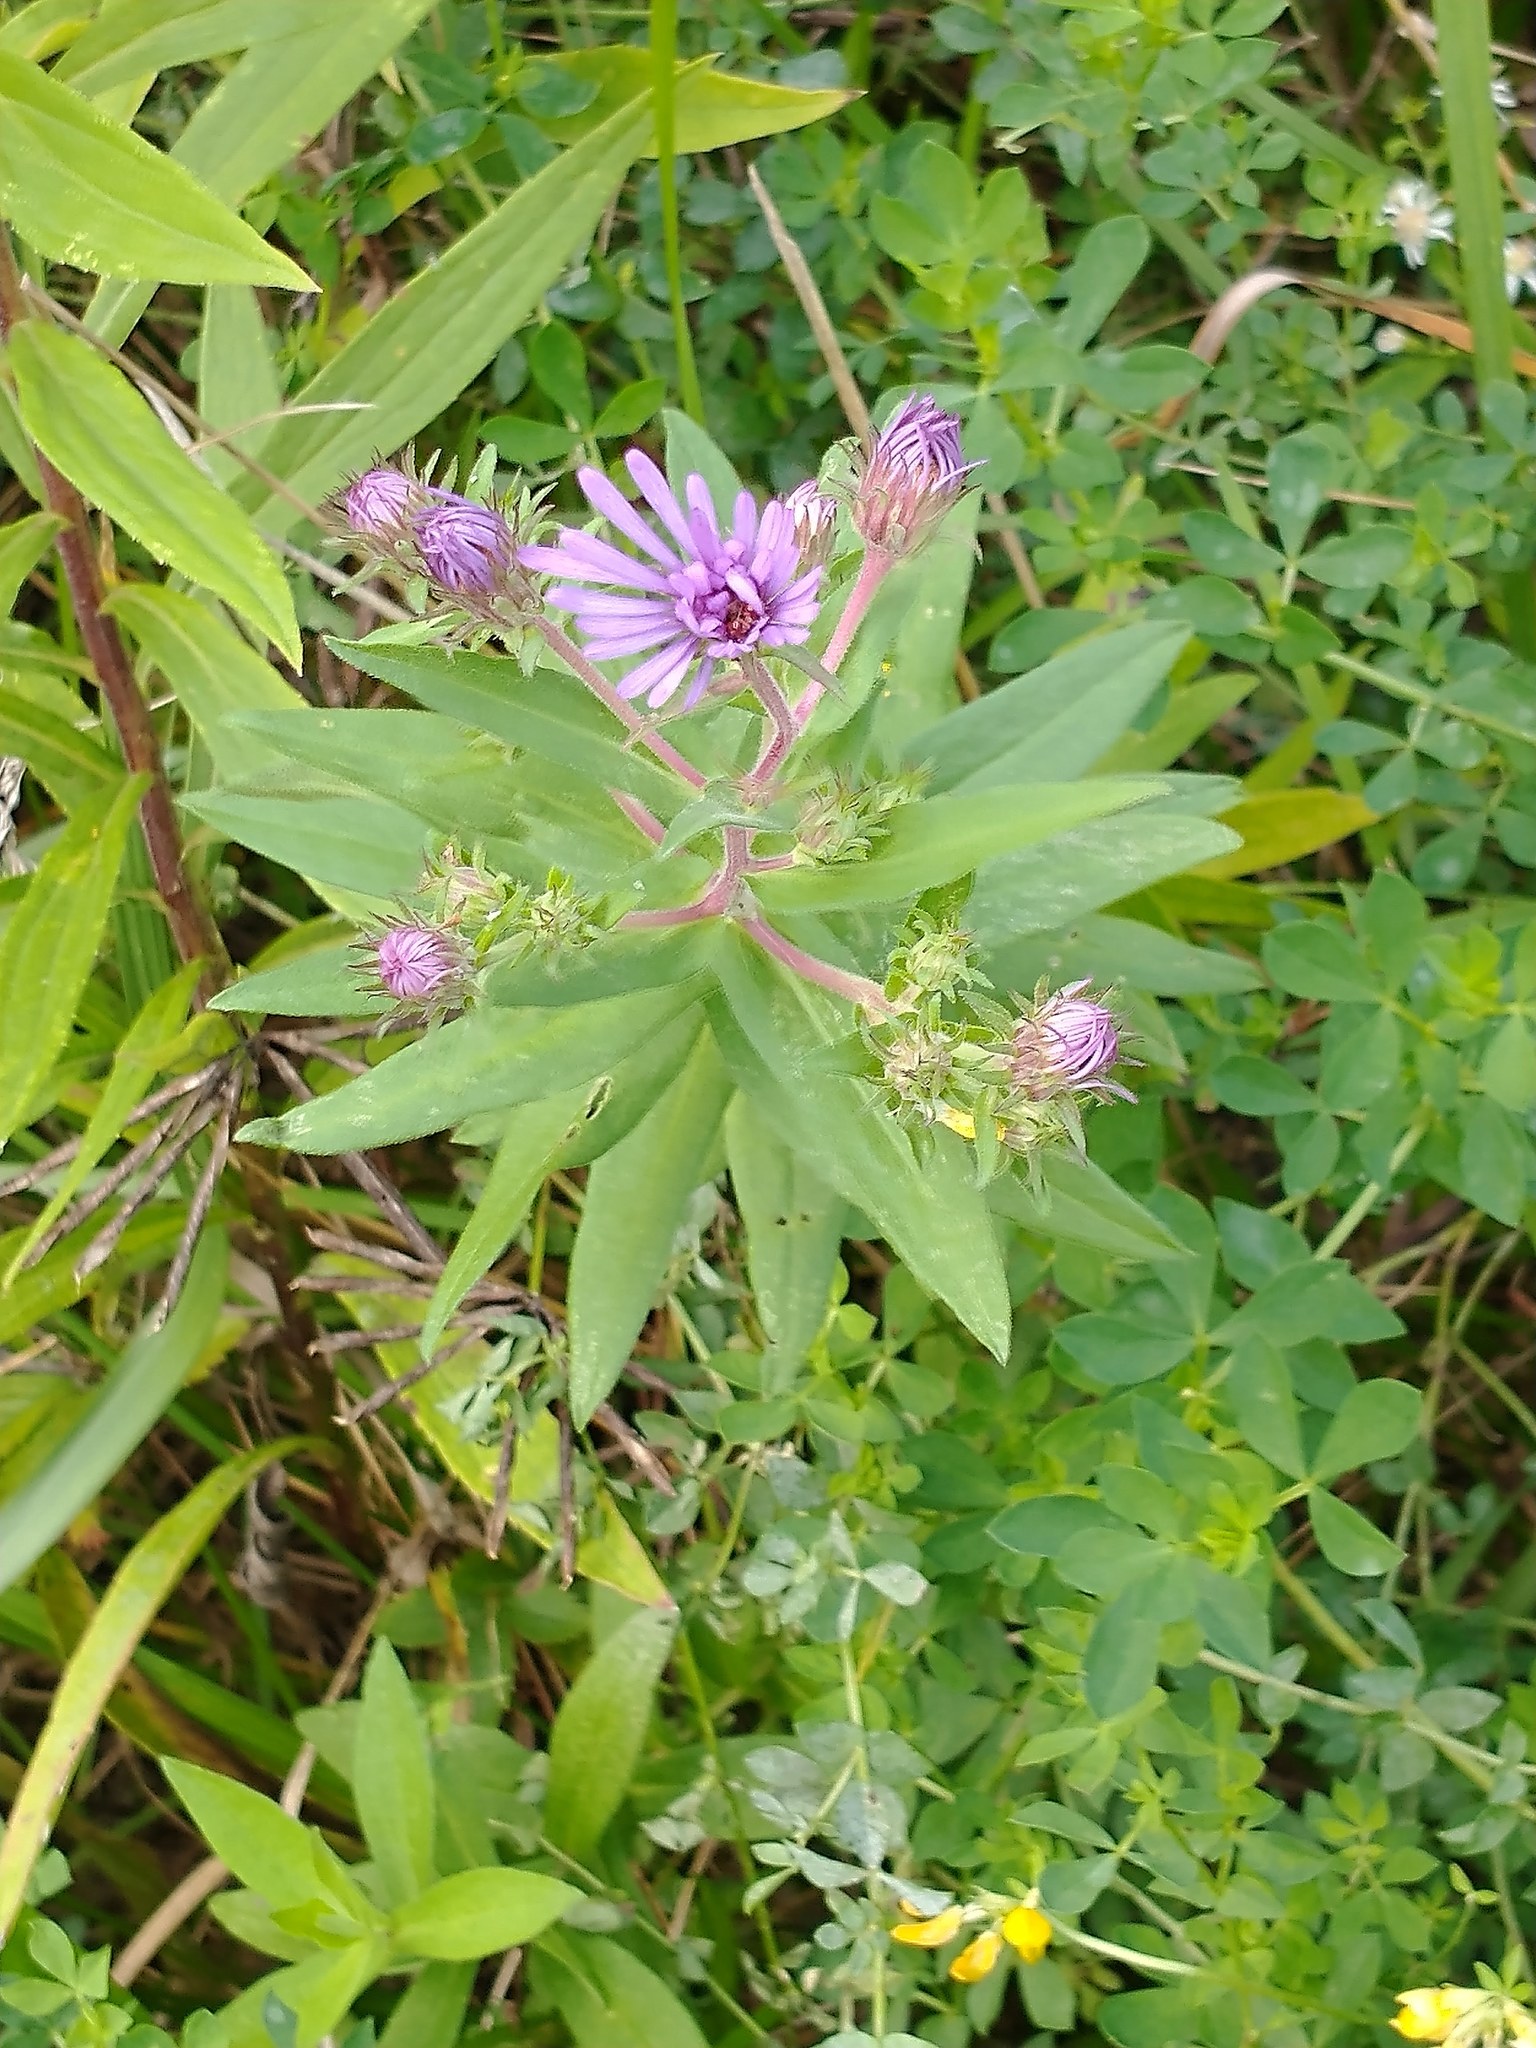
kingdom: Plantae
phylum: Tracheophyta
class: Magnoliopsida
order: Asterales
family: Asteraceae
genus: Symphyotrichum
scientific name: Symphyotrichum novae-angliae
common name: Michaelmas daisy
